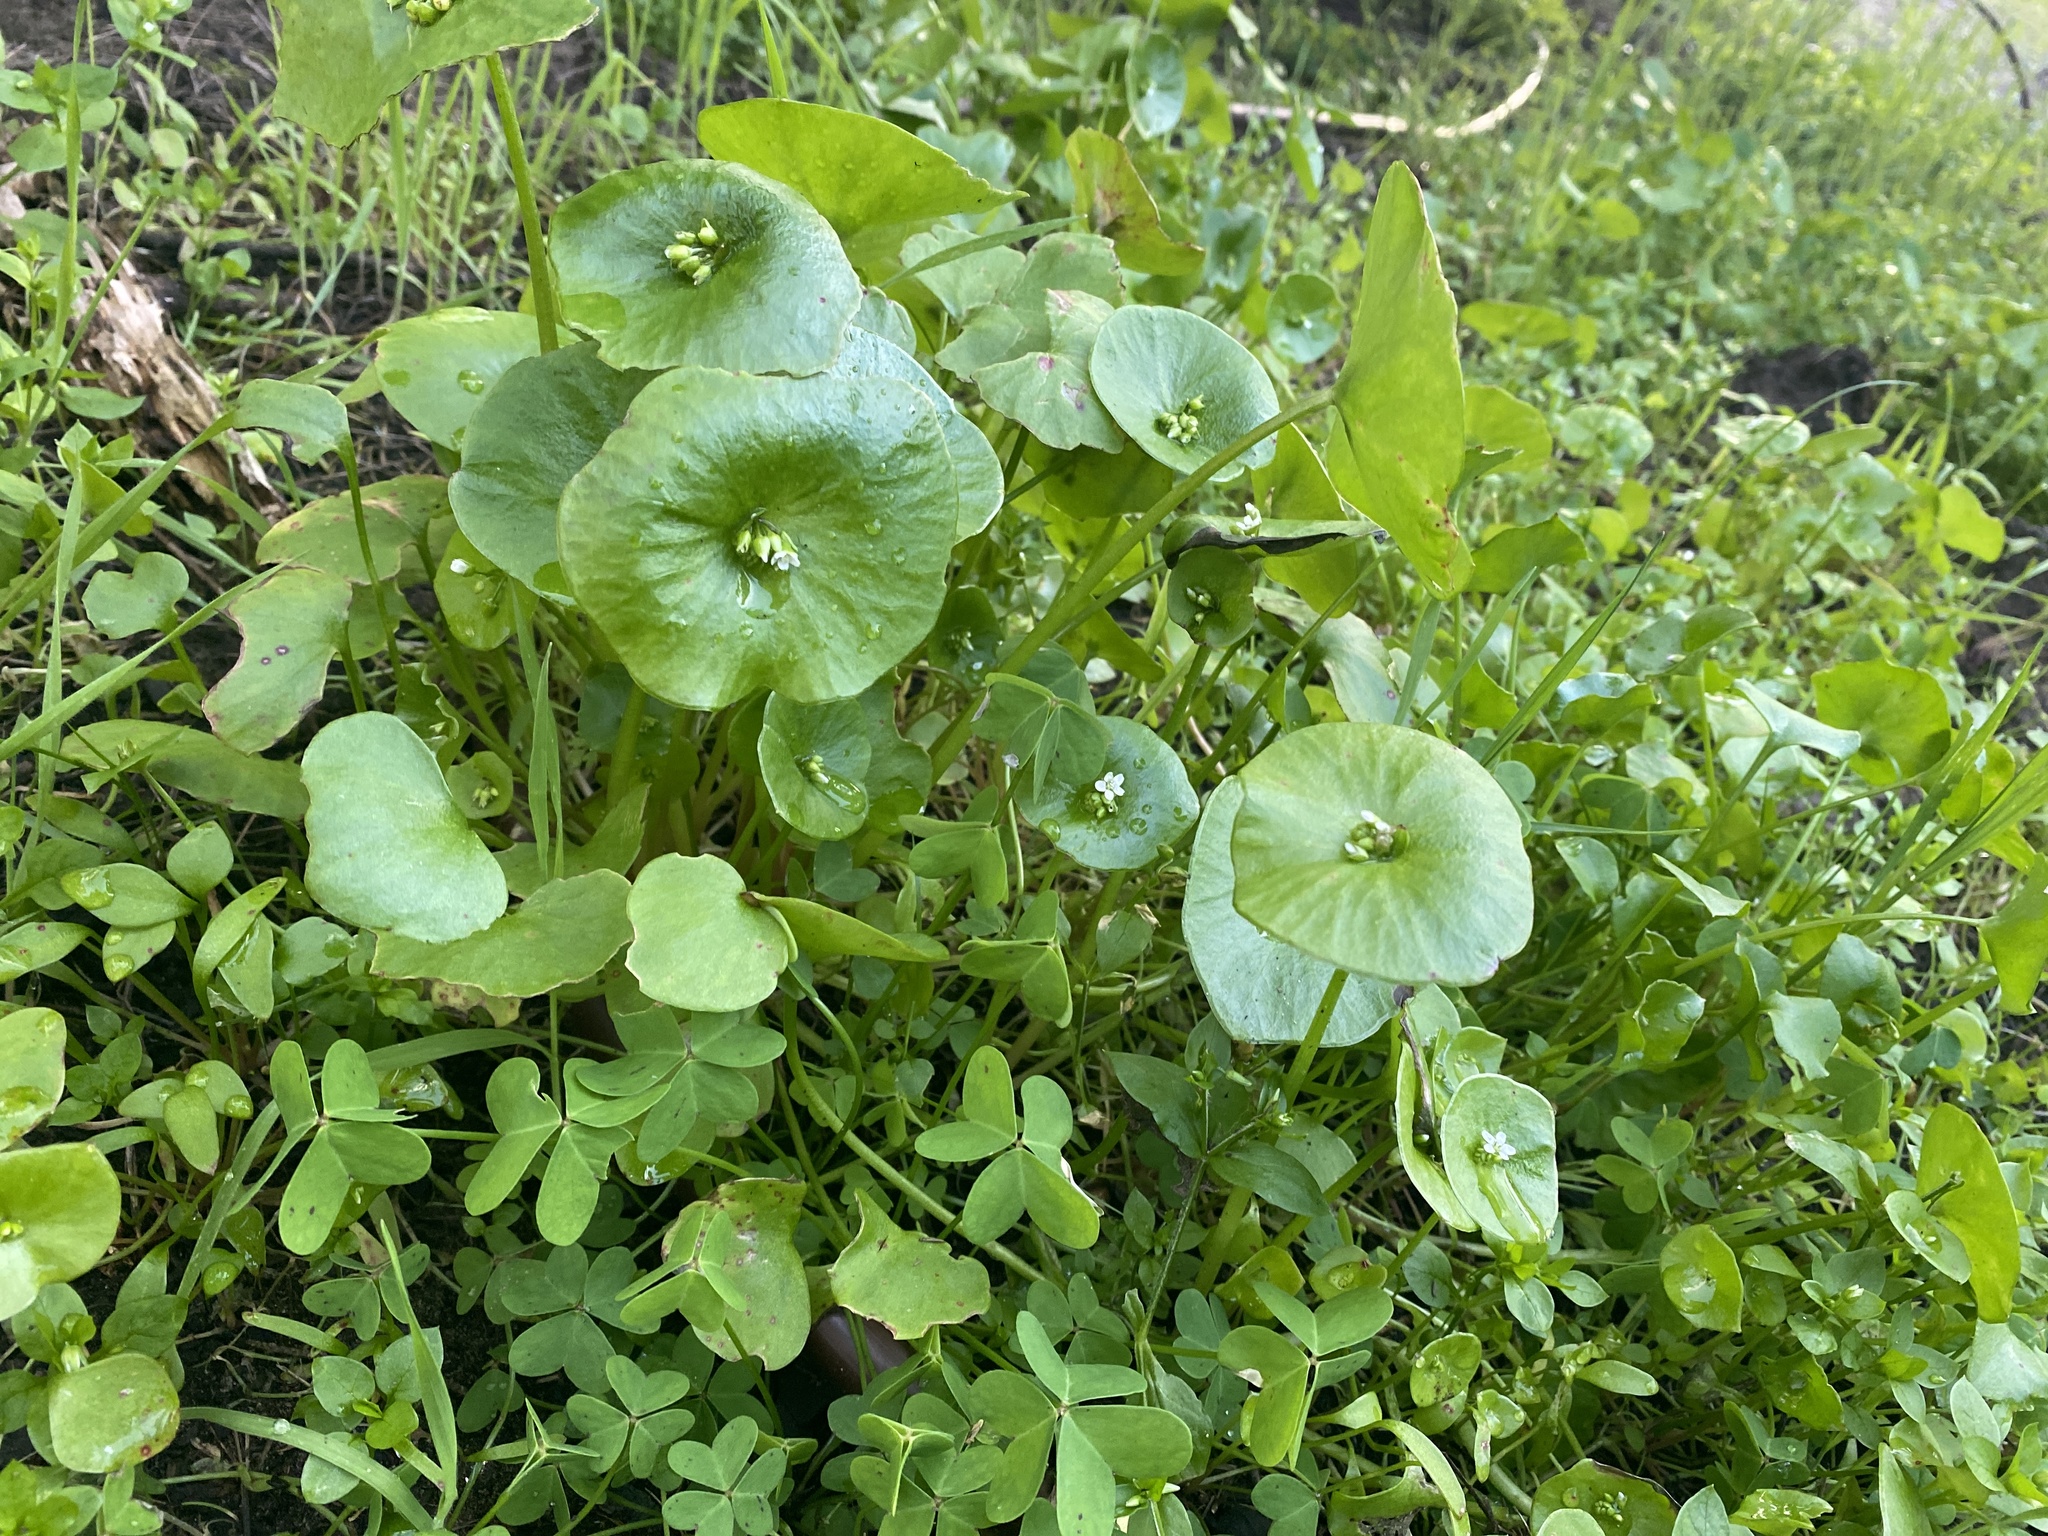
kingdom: Plantae
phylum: Tracheophyta
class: Magnoliopsida
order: Caryophyllales
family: Montiaceae
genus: Claytonia
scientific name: Claytonia perfoliata
